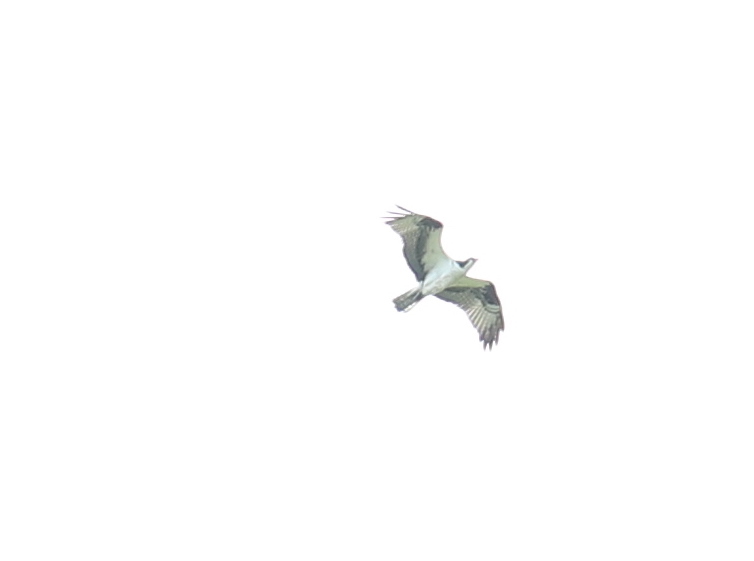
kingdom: Animalia
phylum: Chordata
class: Aves
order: Accipitriformes
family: Pandionidae
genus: Pandion
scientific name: Pandion haliaetus
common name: Osprey
